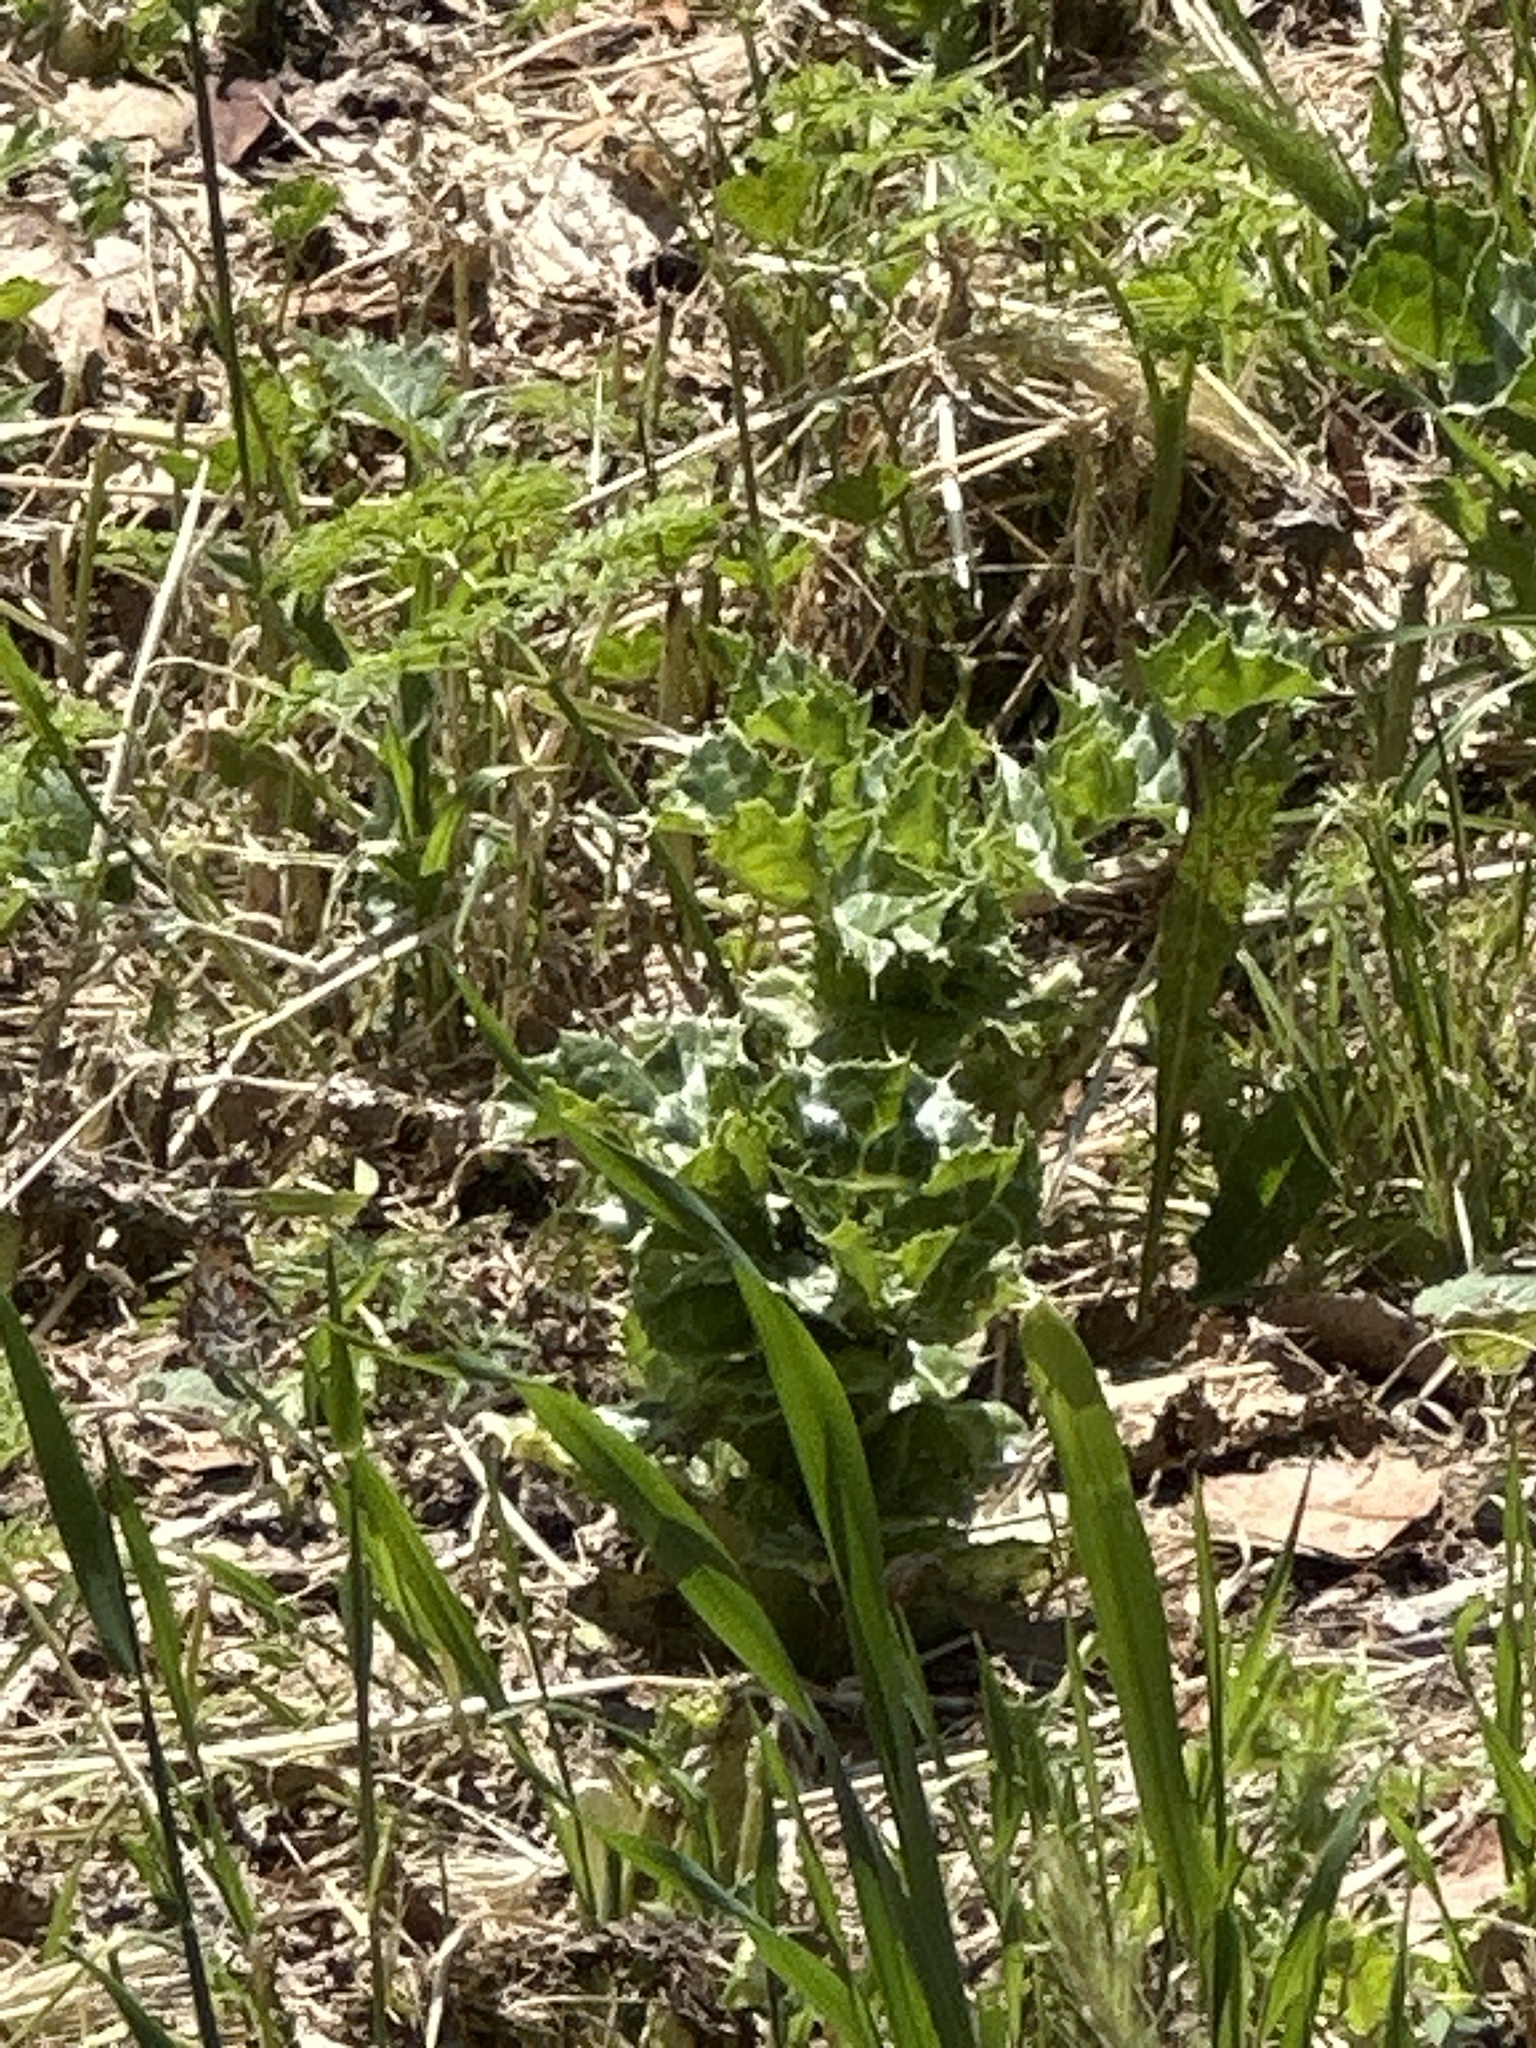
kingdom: Animalia
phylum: Arthropoda
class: Insecta
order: Lepidoptera
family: Nymphalidae
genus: Vanessa
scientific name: Vanessa cardui
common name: Painted lady
